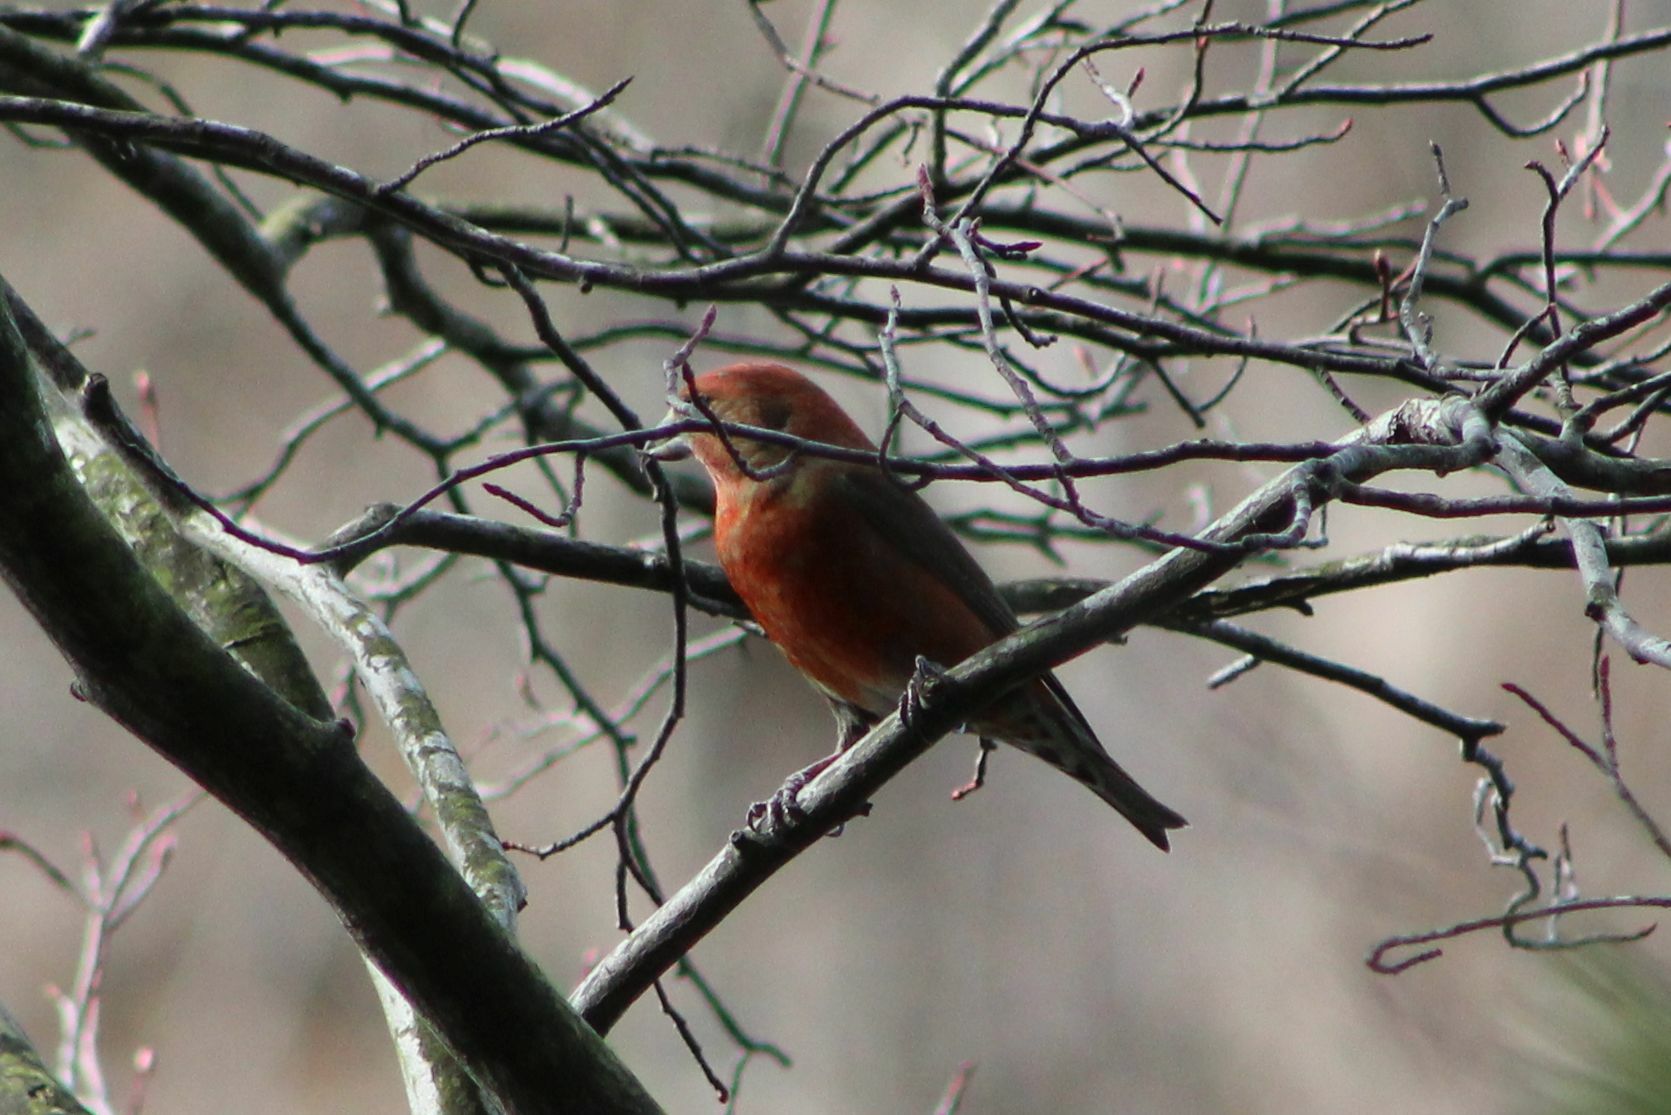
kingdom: Animalia
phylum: Chordata
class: Aves
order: Passeriformes
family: Fringillidae
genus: Loxia
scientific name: Loxia curvirostra
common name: Red crossbill
